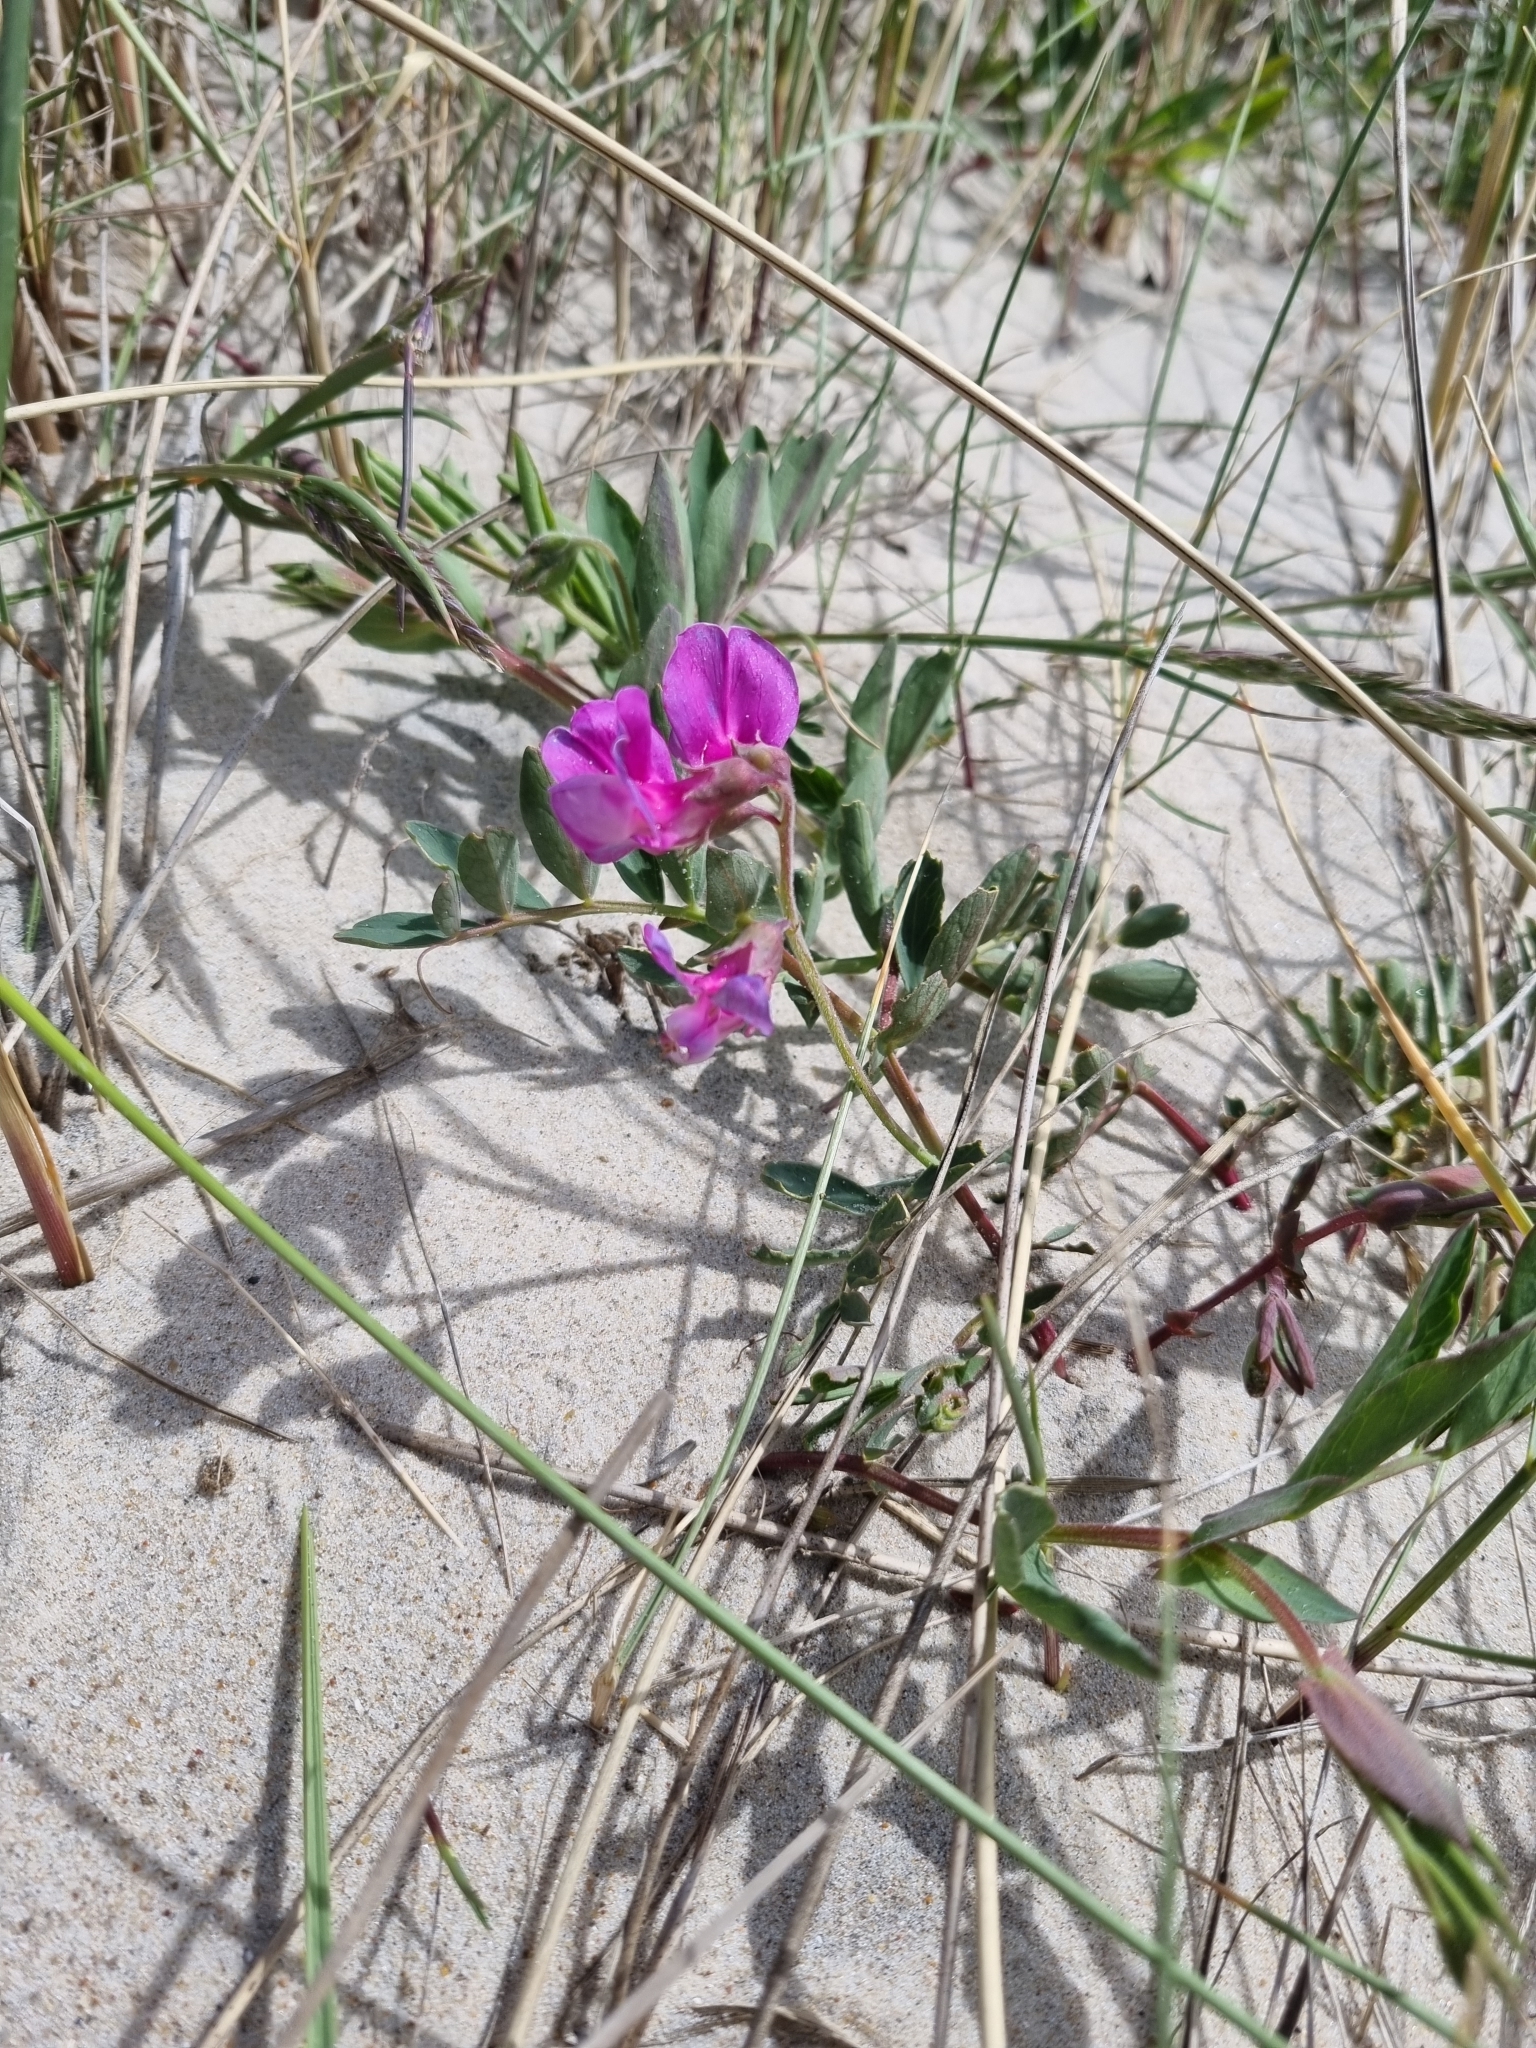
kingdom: Plantae
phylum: Tracheophyta
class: Magnoliopsida
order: Fabales
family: Fabaceae
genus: Lathyrus
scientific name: Lathyrus japonicus
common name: Sea pea
